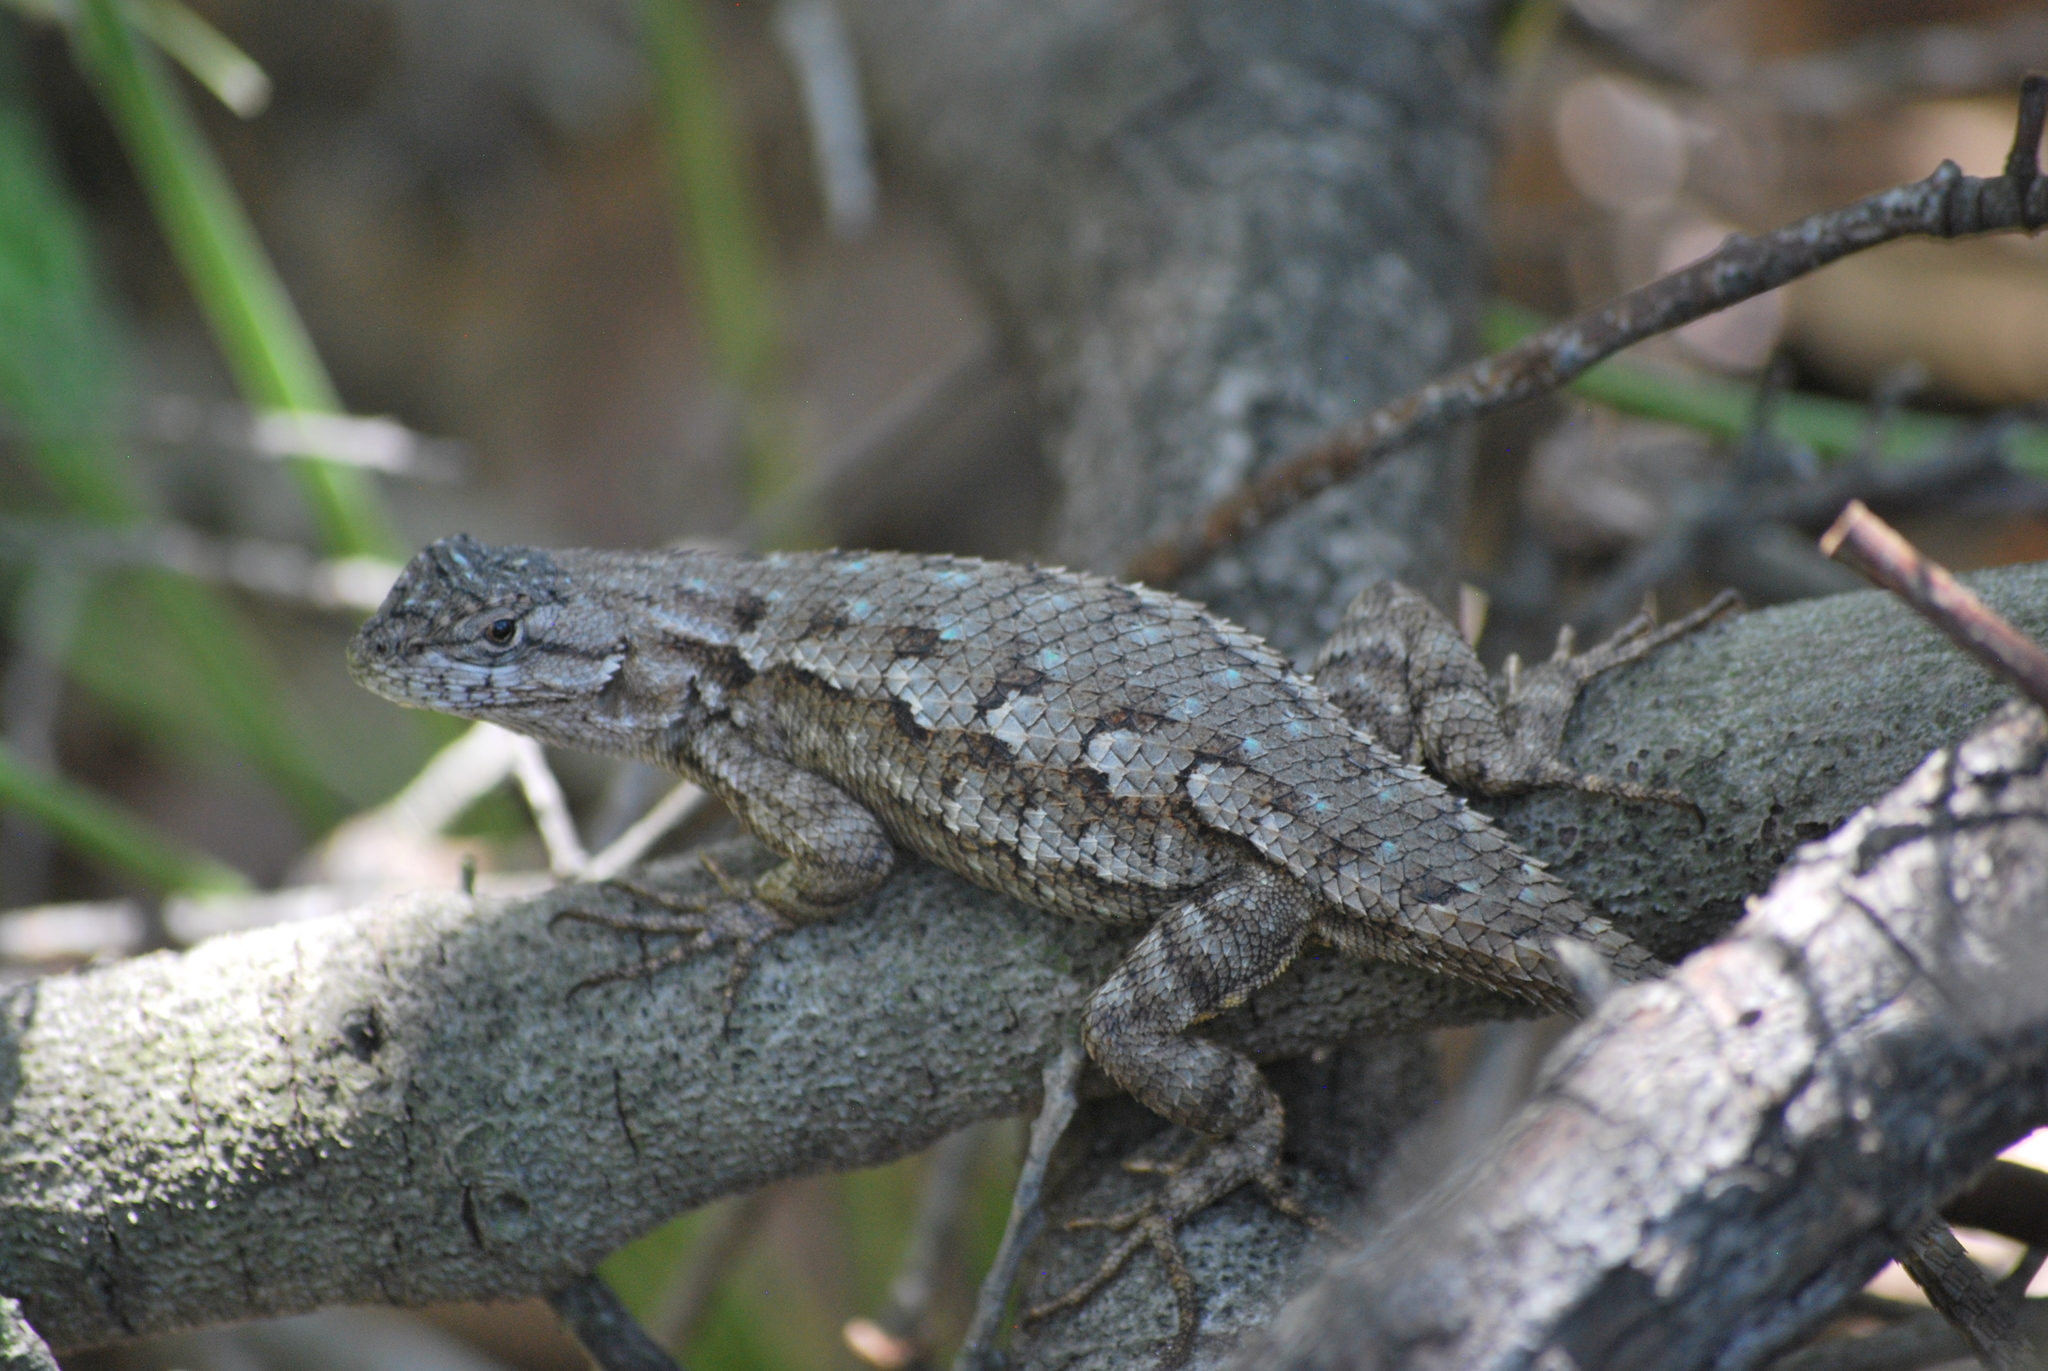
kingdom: Animalia
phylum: Chordata
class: Squamata
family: Phrynosomatidae
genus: Sceloporus
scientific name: Sceloporus occidentalis
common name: Western fence lizard
